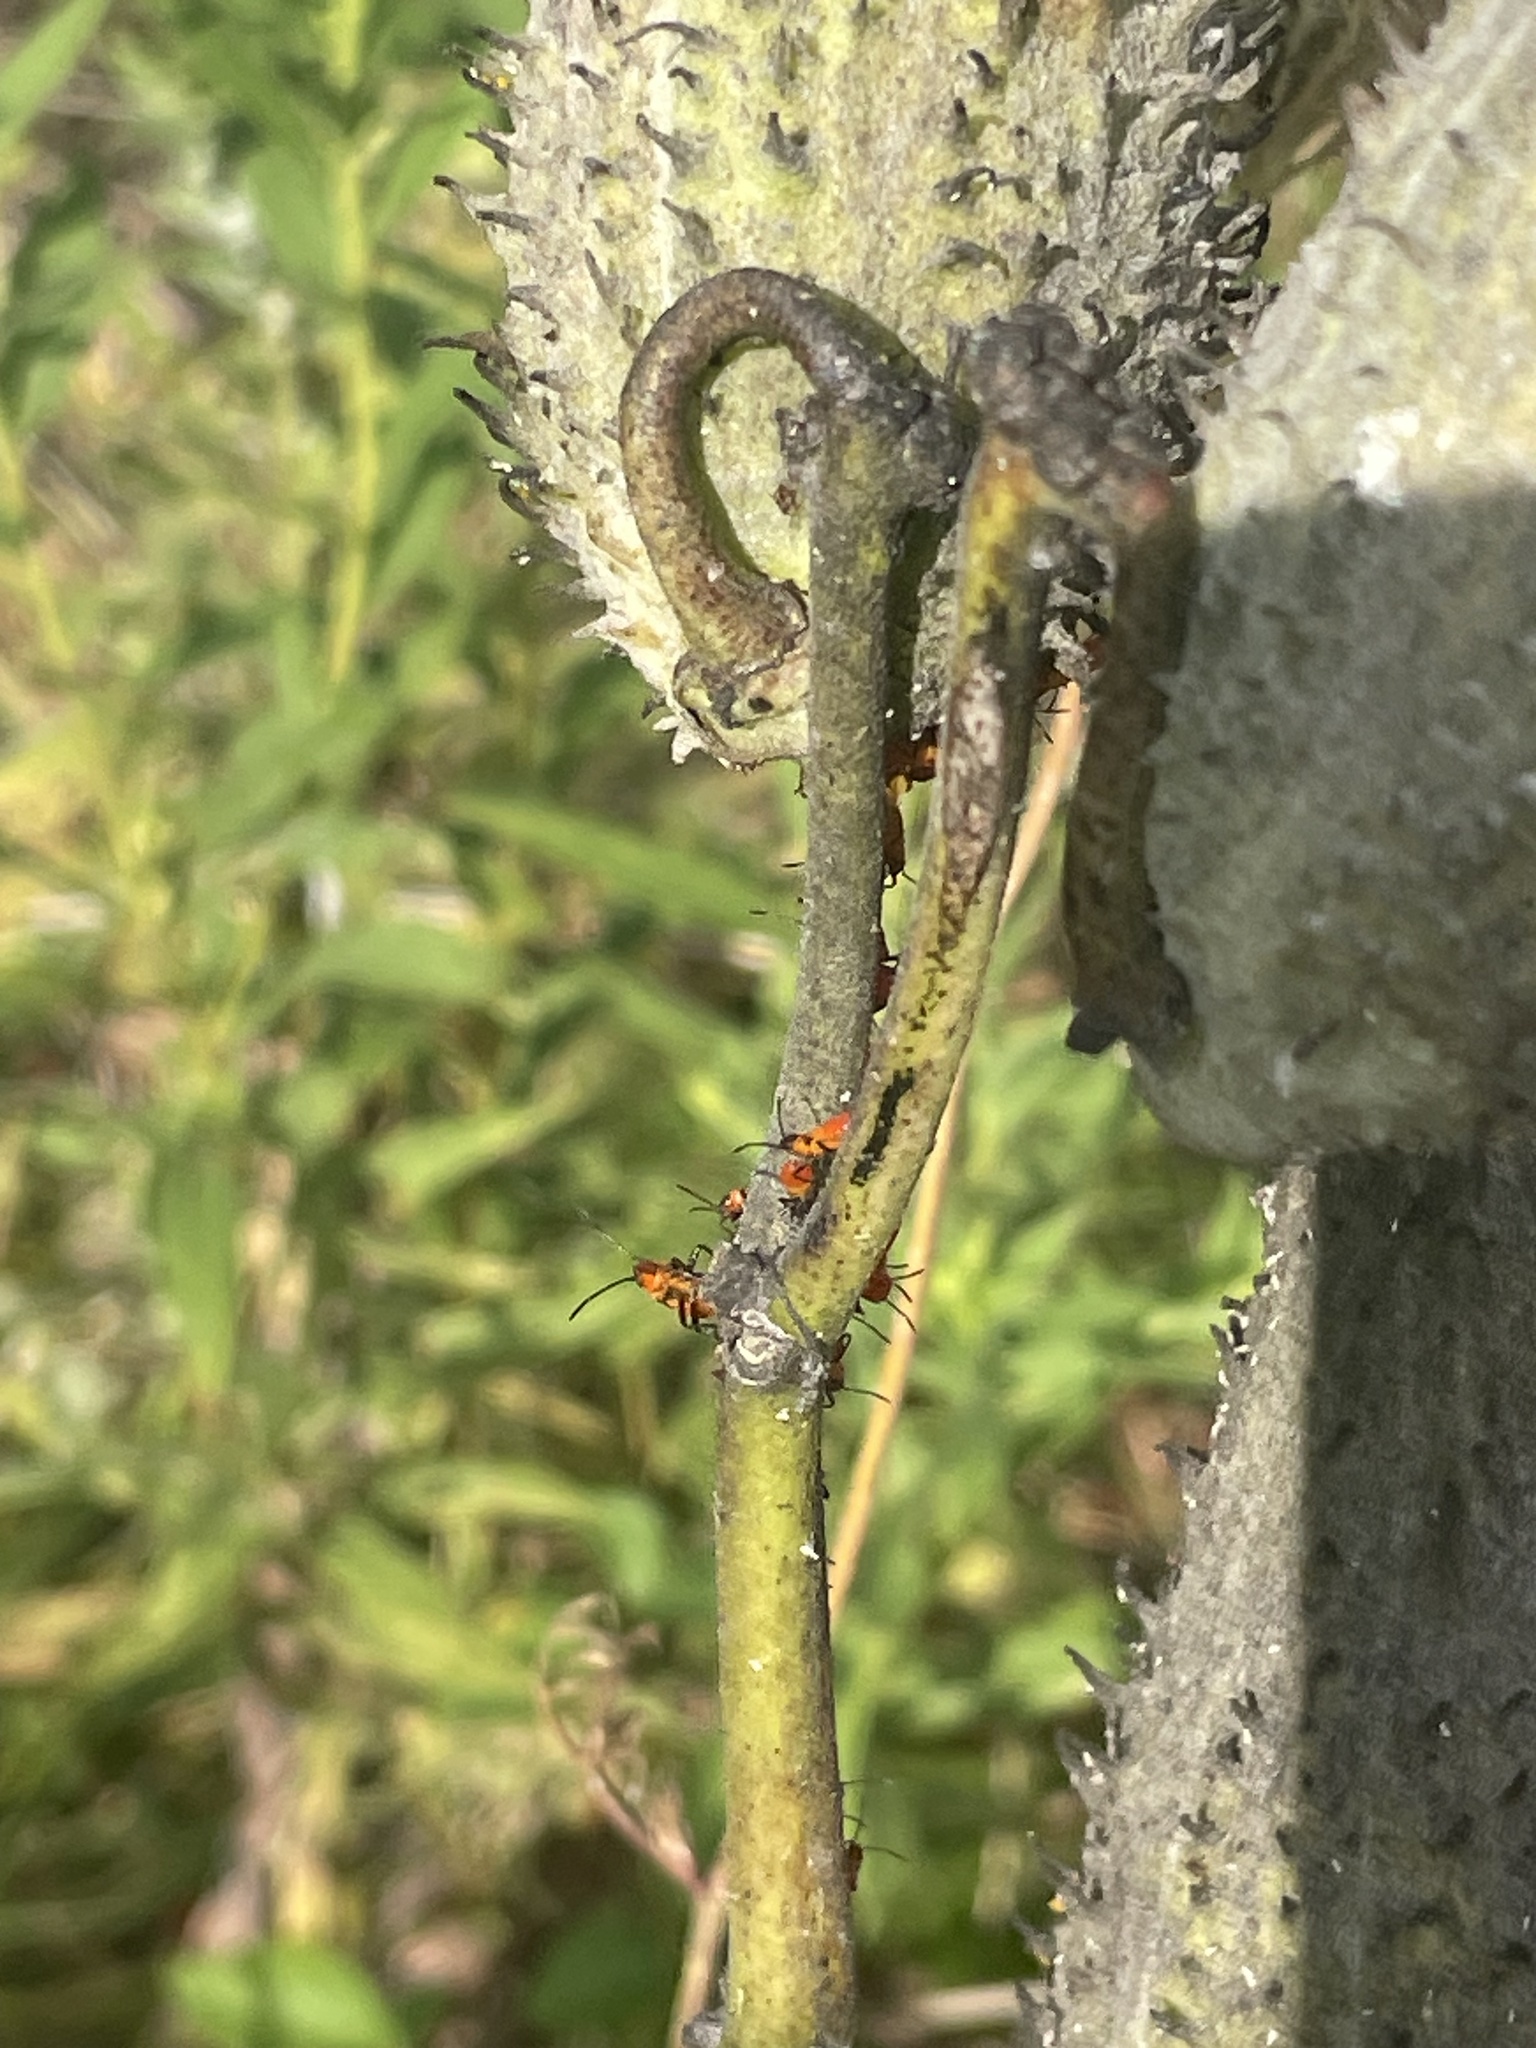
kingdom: Animalia
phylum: Arthropoda
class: Insecta
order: Hemiptera
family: Lygaeidae
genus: Oncopeltus
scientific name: Oncopeltus fasciatus
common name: Large milkweed bug
